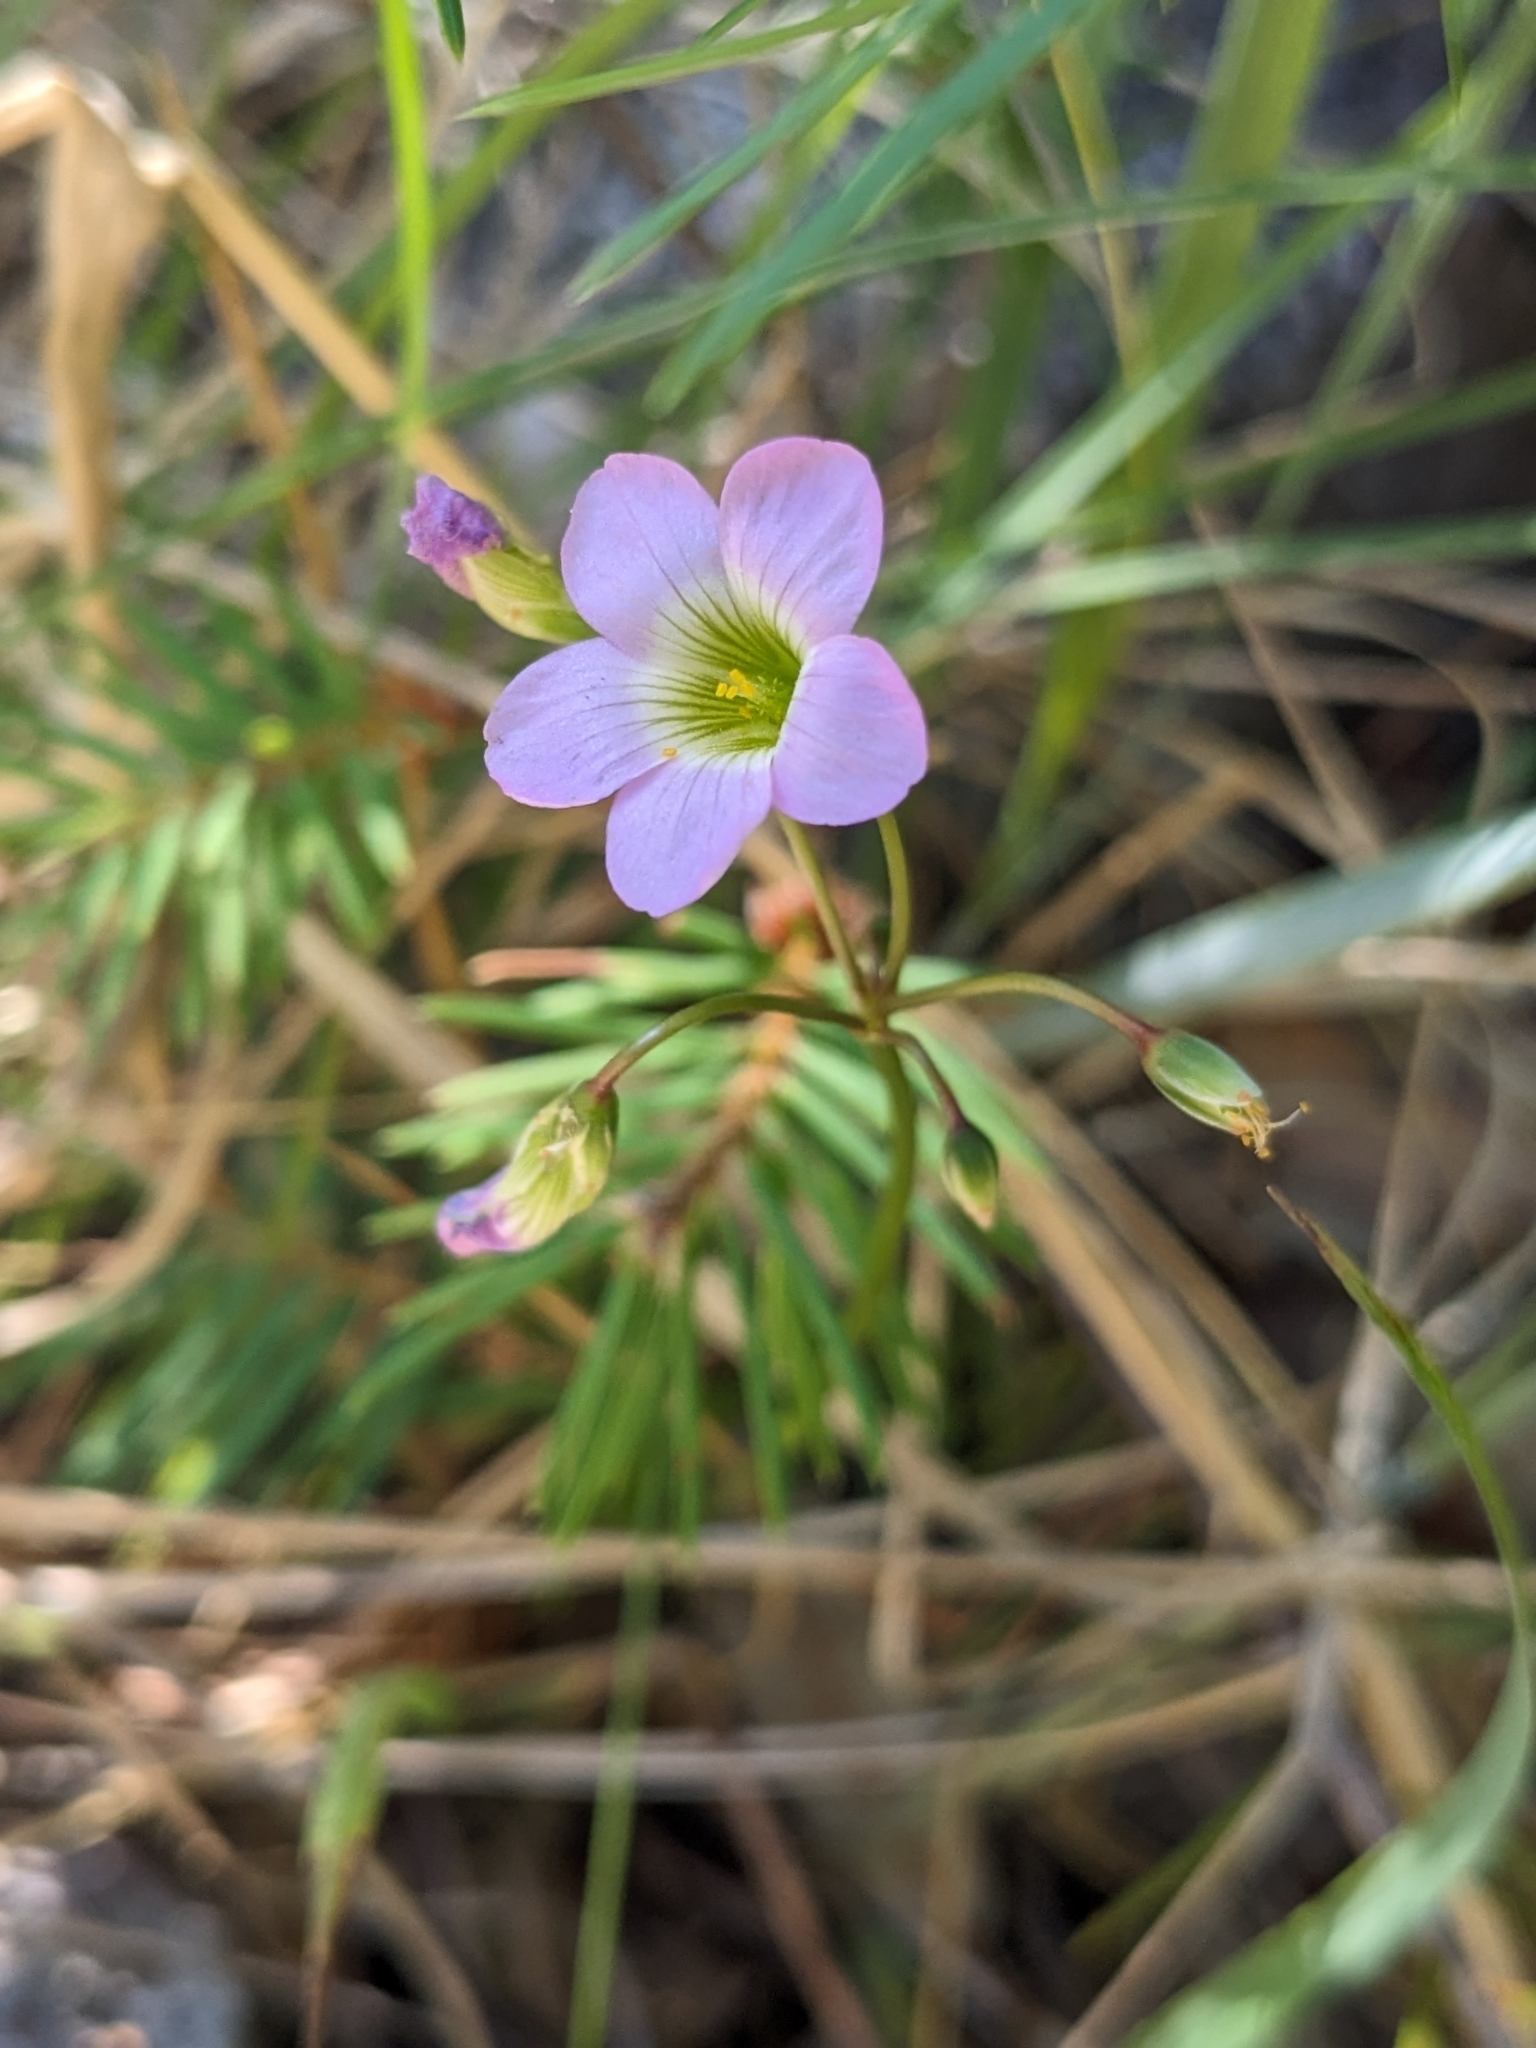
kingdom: Plantae
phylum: Tracheophyta
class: Magnoliopsida
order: Oxalidales
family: Oxalidaceae
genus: Oxalis
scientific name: Oxalis metcalfei
